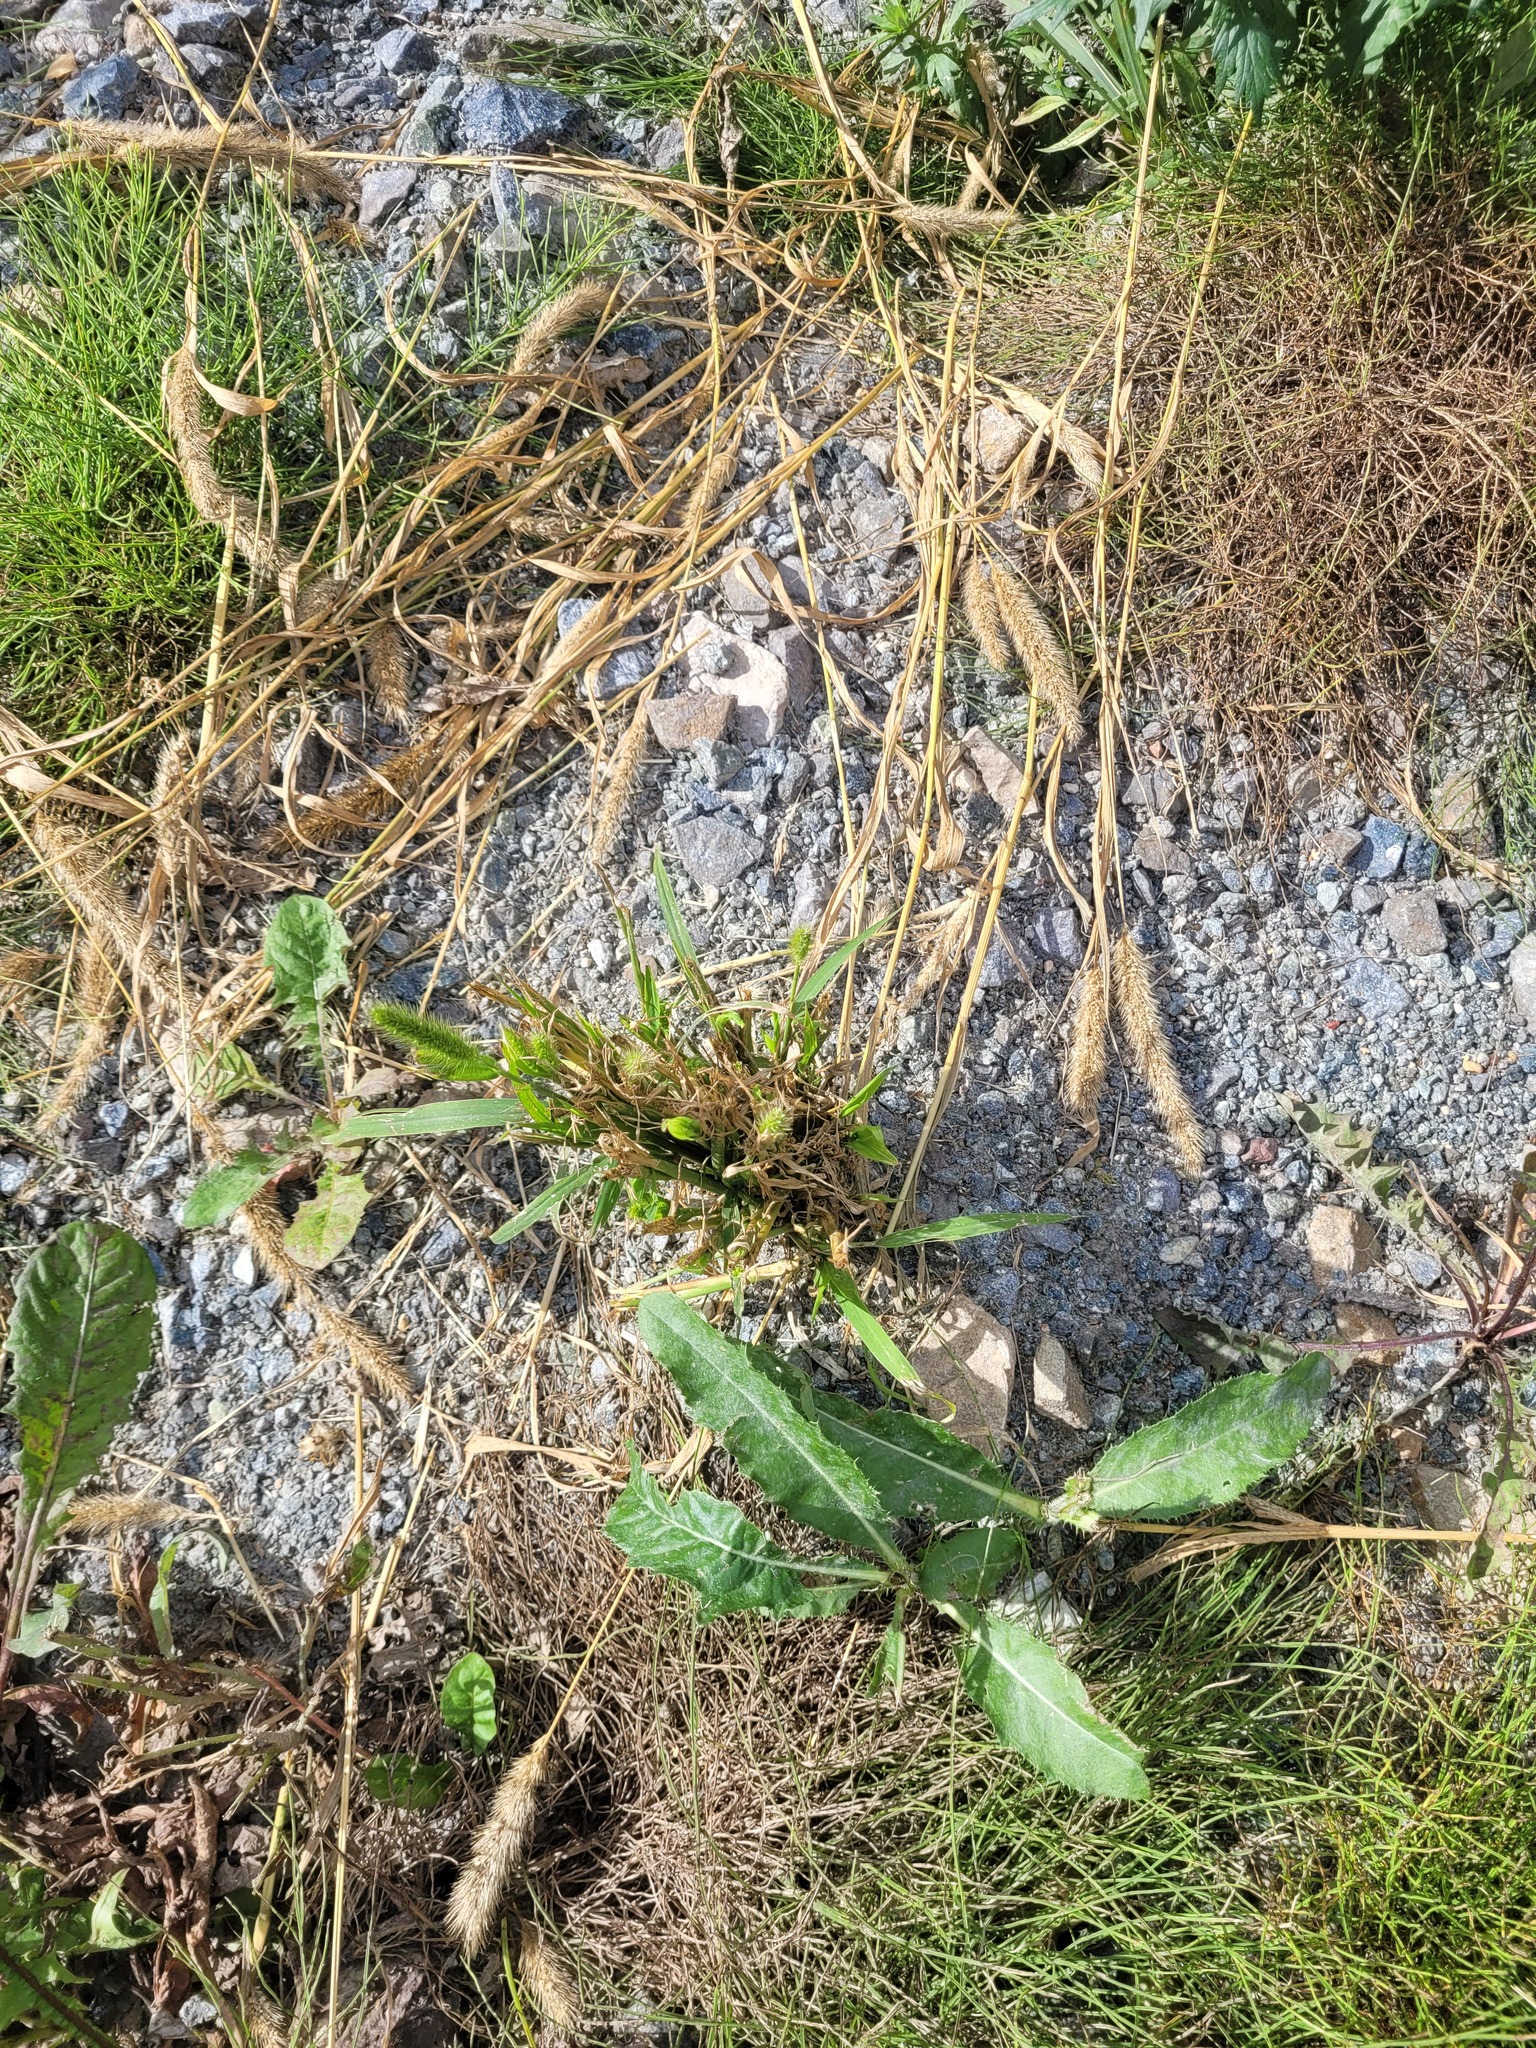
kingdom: Plantae
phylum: Tracheophyta
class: Liliopsida
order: Poales
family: Poaceae
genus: Setaria
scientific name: Setaria viridis
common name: Green bristlegrass
